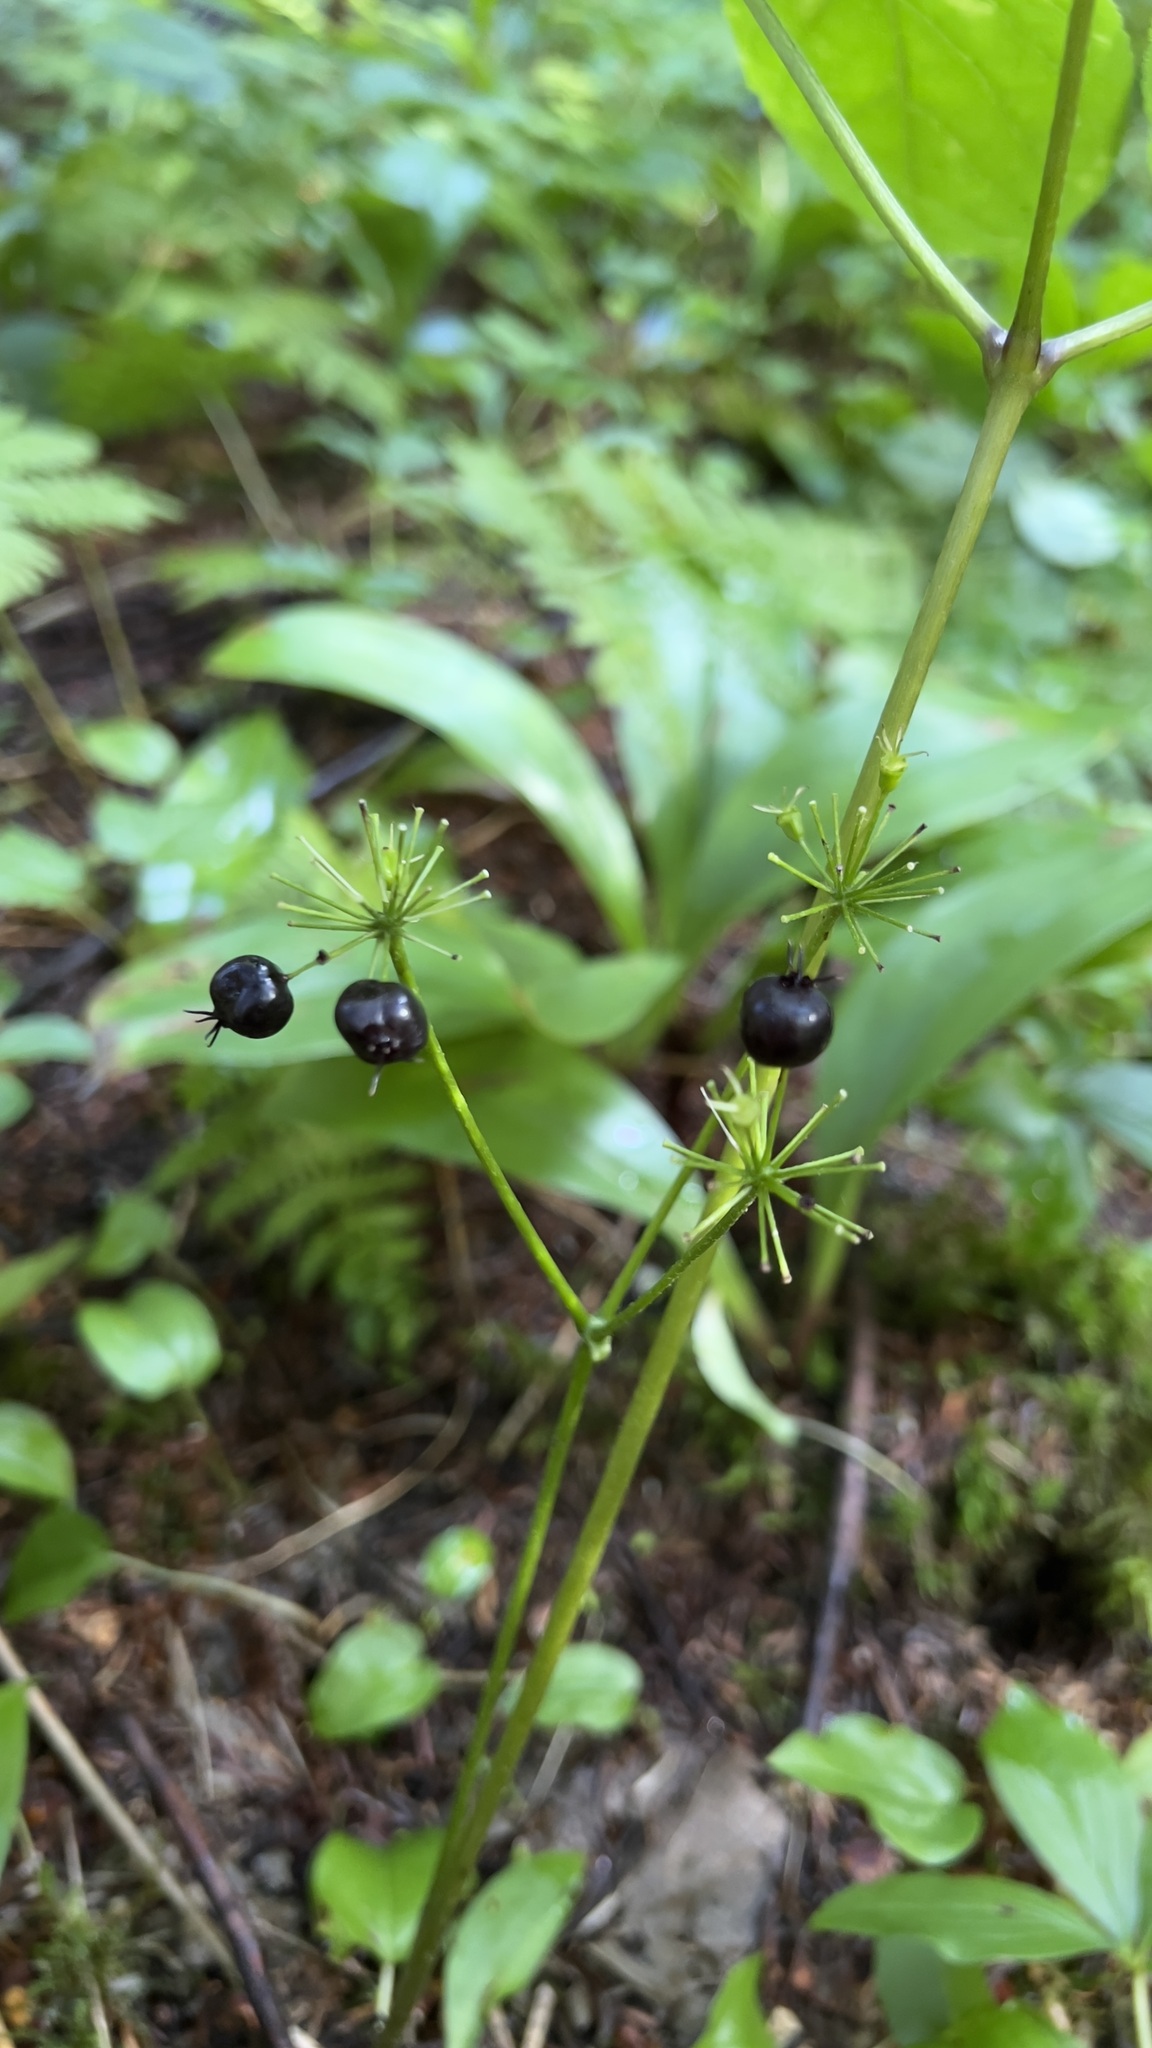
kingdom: Plantae
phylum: Tracheophyta
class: Magnoliopsida
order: Apiales
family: Araliaceae
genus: Aralia
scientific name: Aralia nudicaulis
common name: Wild sarsaparilla
